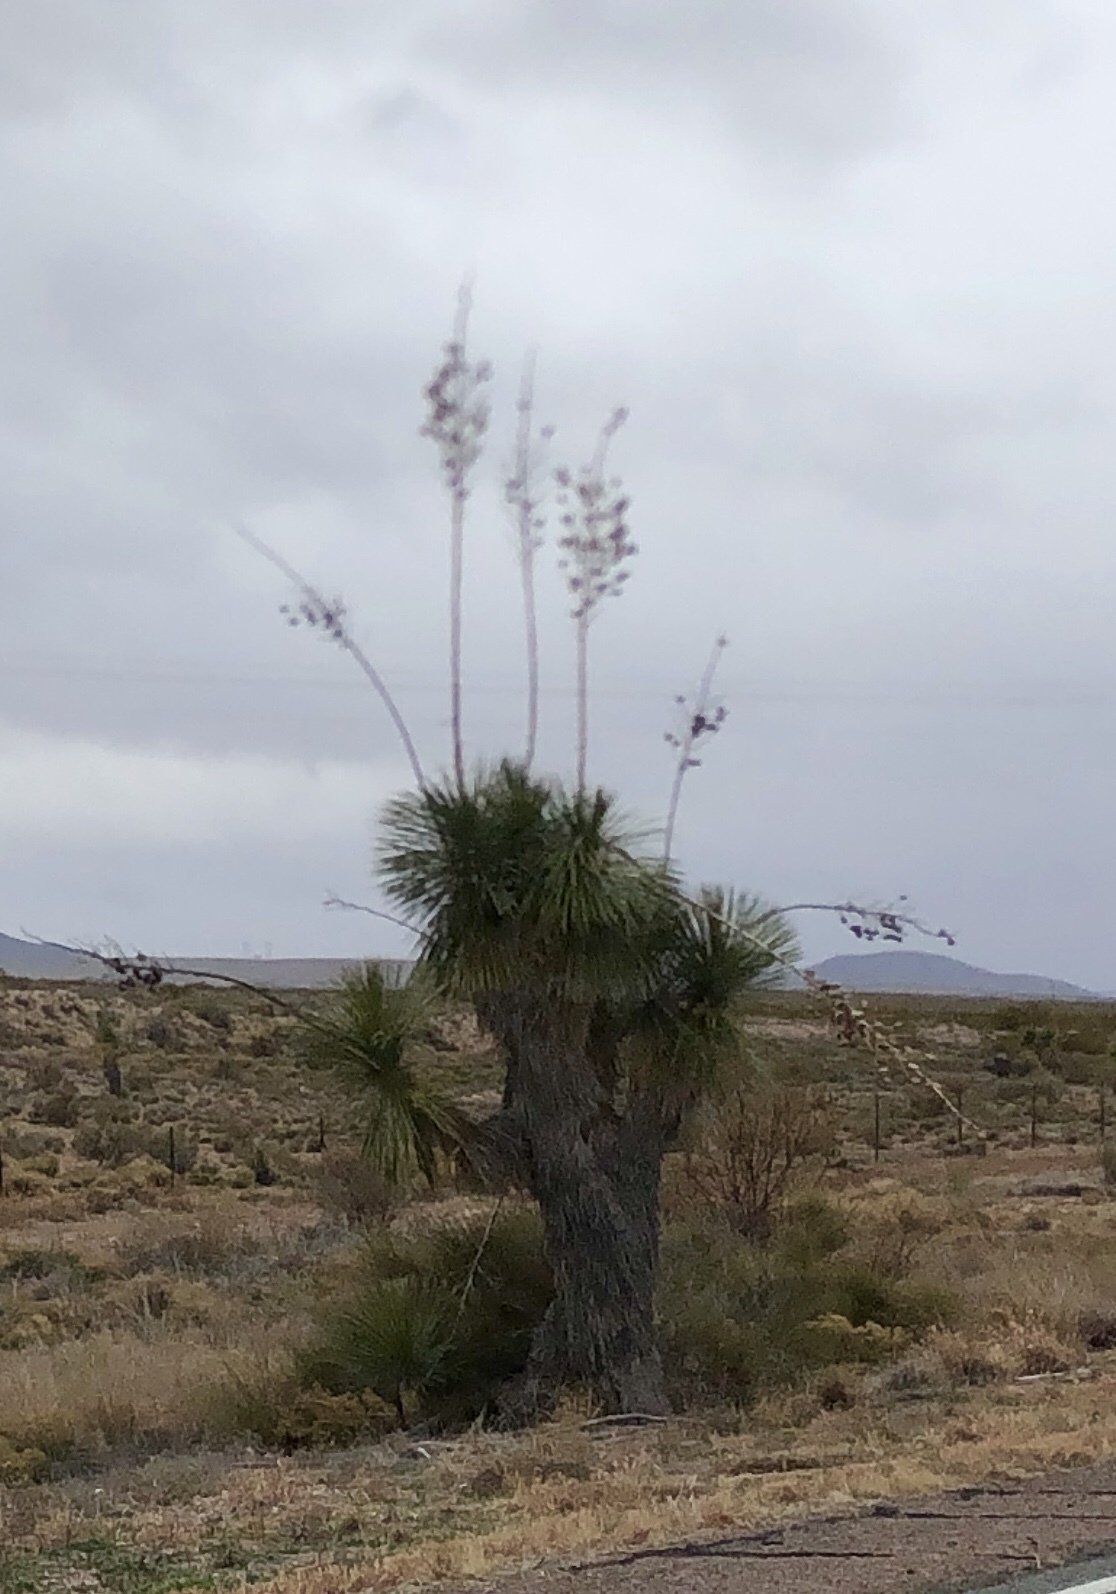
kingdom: Plantae
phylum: Tracheophyta
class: Liliopsida
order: Asparagales
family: Asparagaceae
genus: Yucca
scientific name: Yucca elata
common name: Palmella
